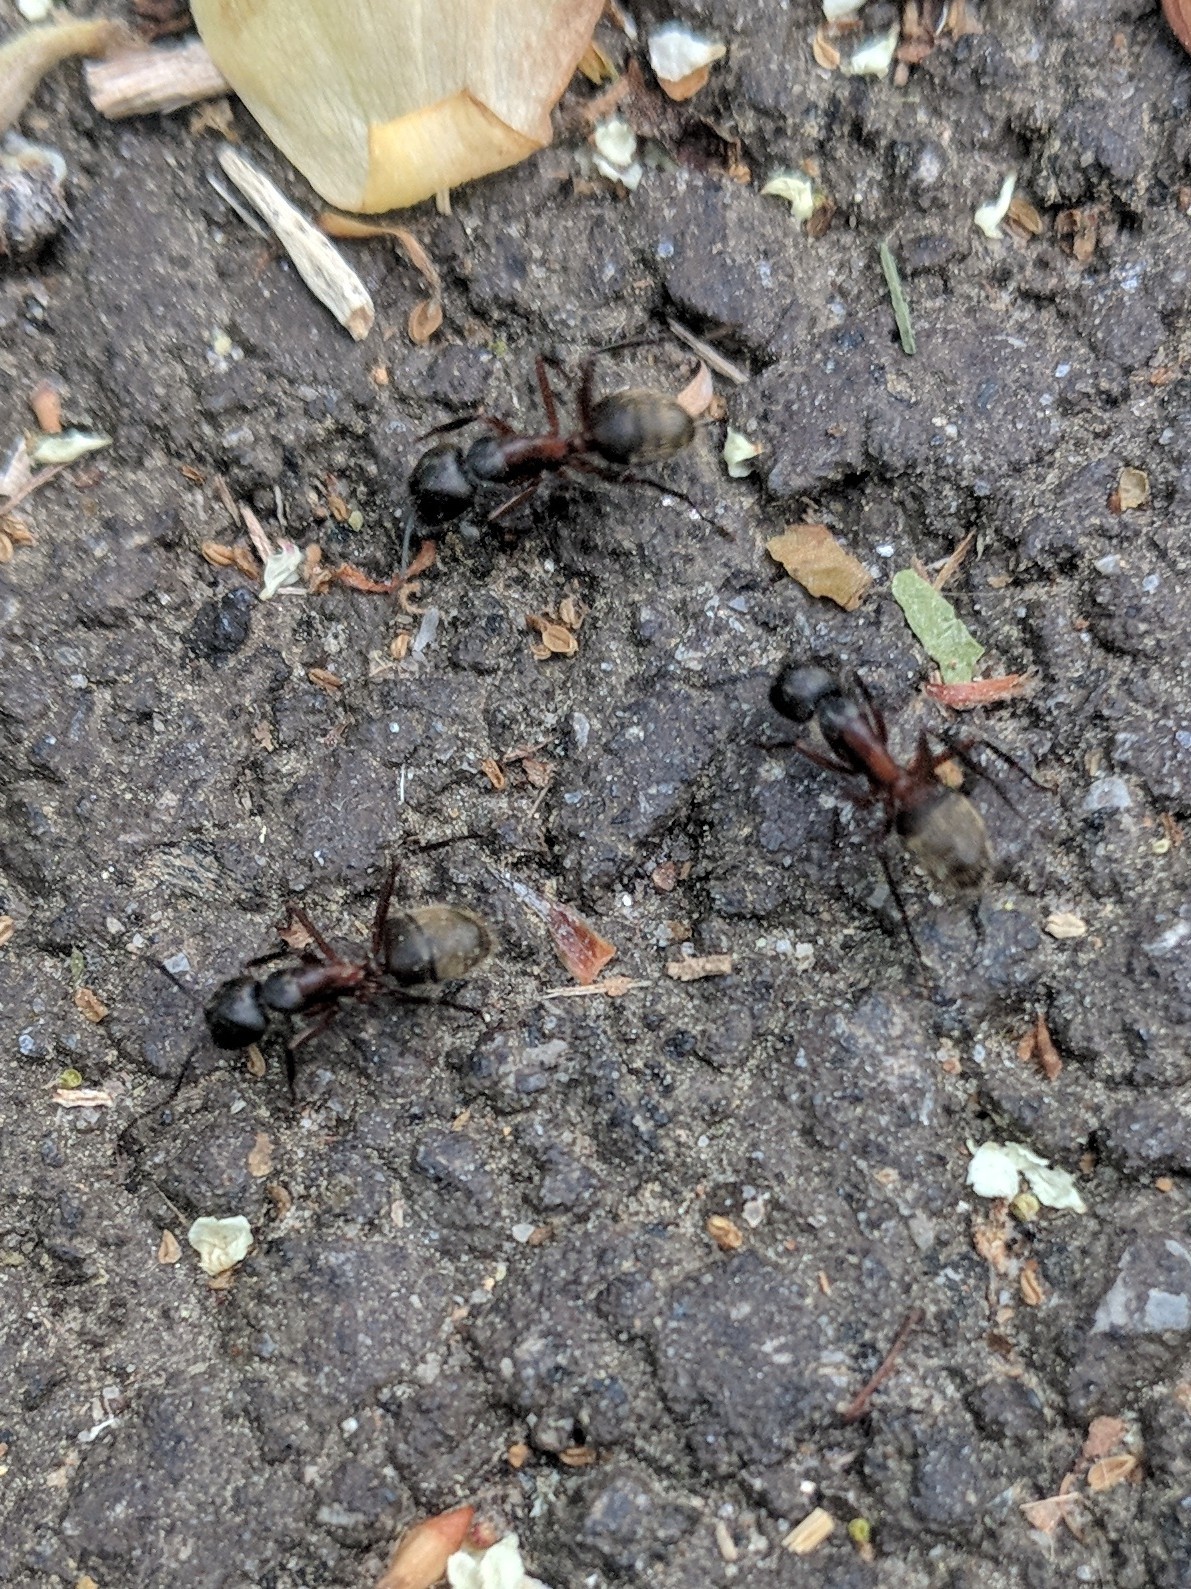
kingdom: Animalia
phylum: Arthropoda
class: Insecta
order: Hymenoptera
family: Formicidae
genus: Camponotus
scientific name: Camponotus chromaiodes
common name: Red carpenter ant
